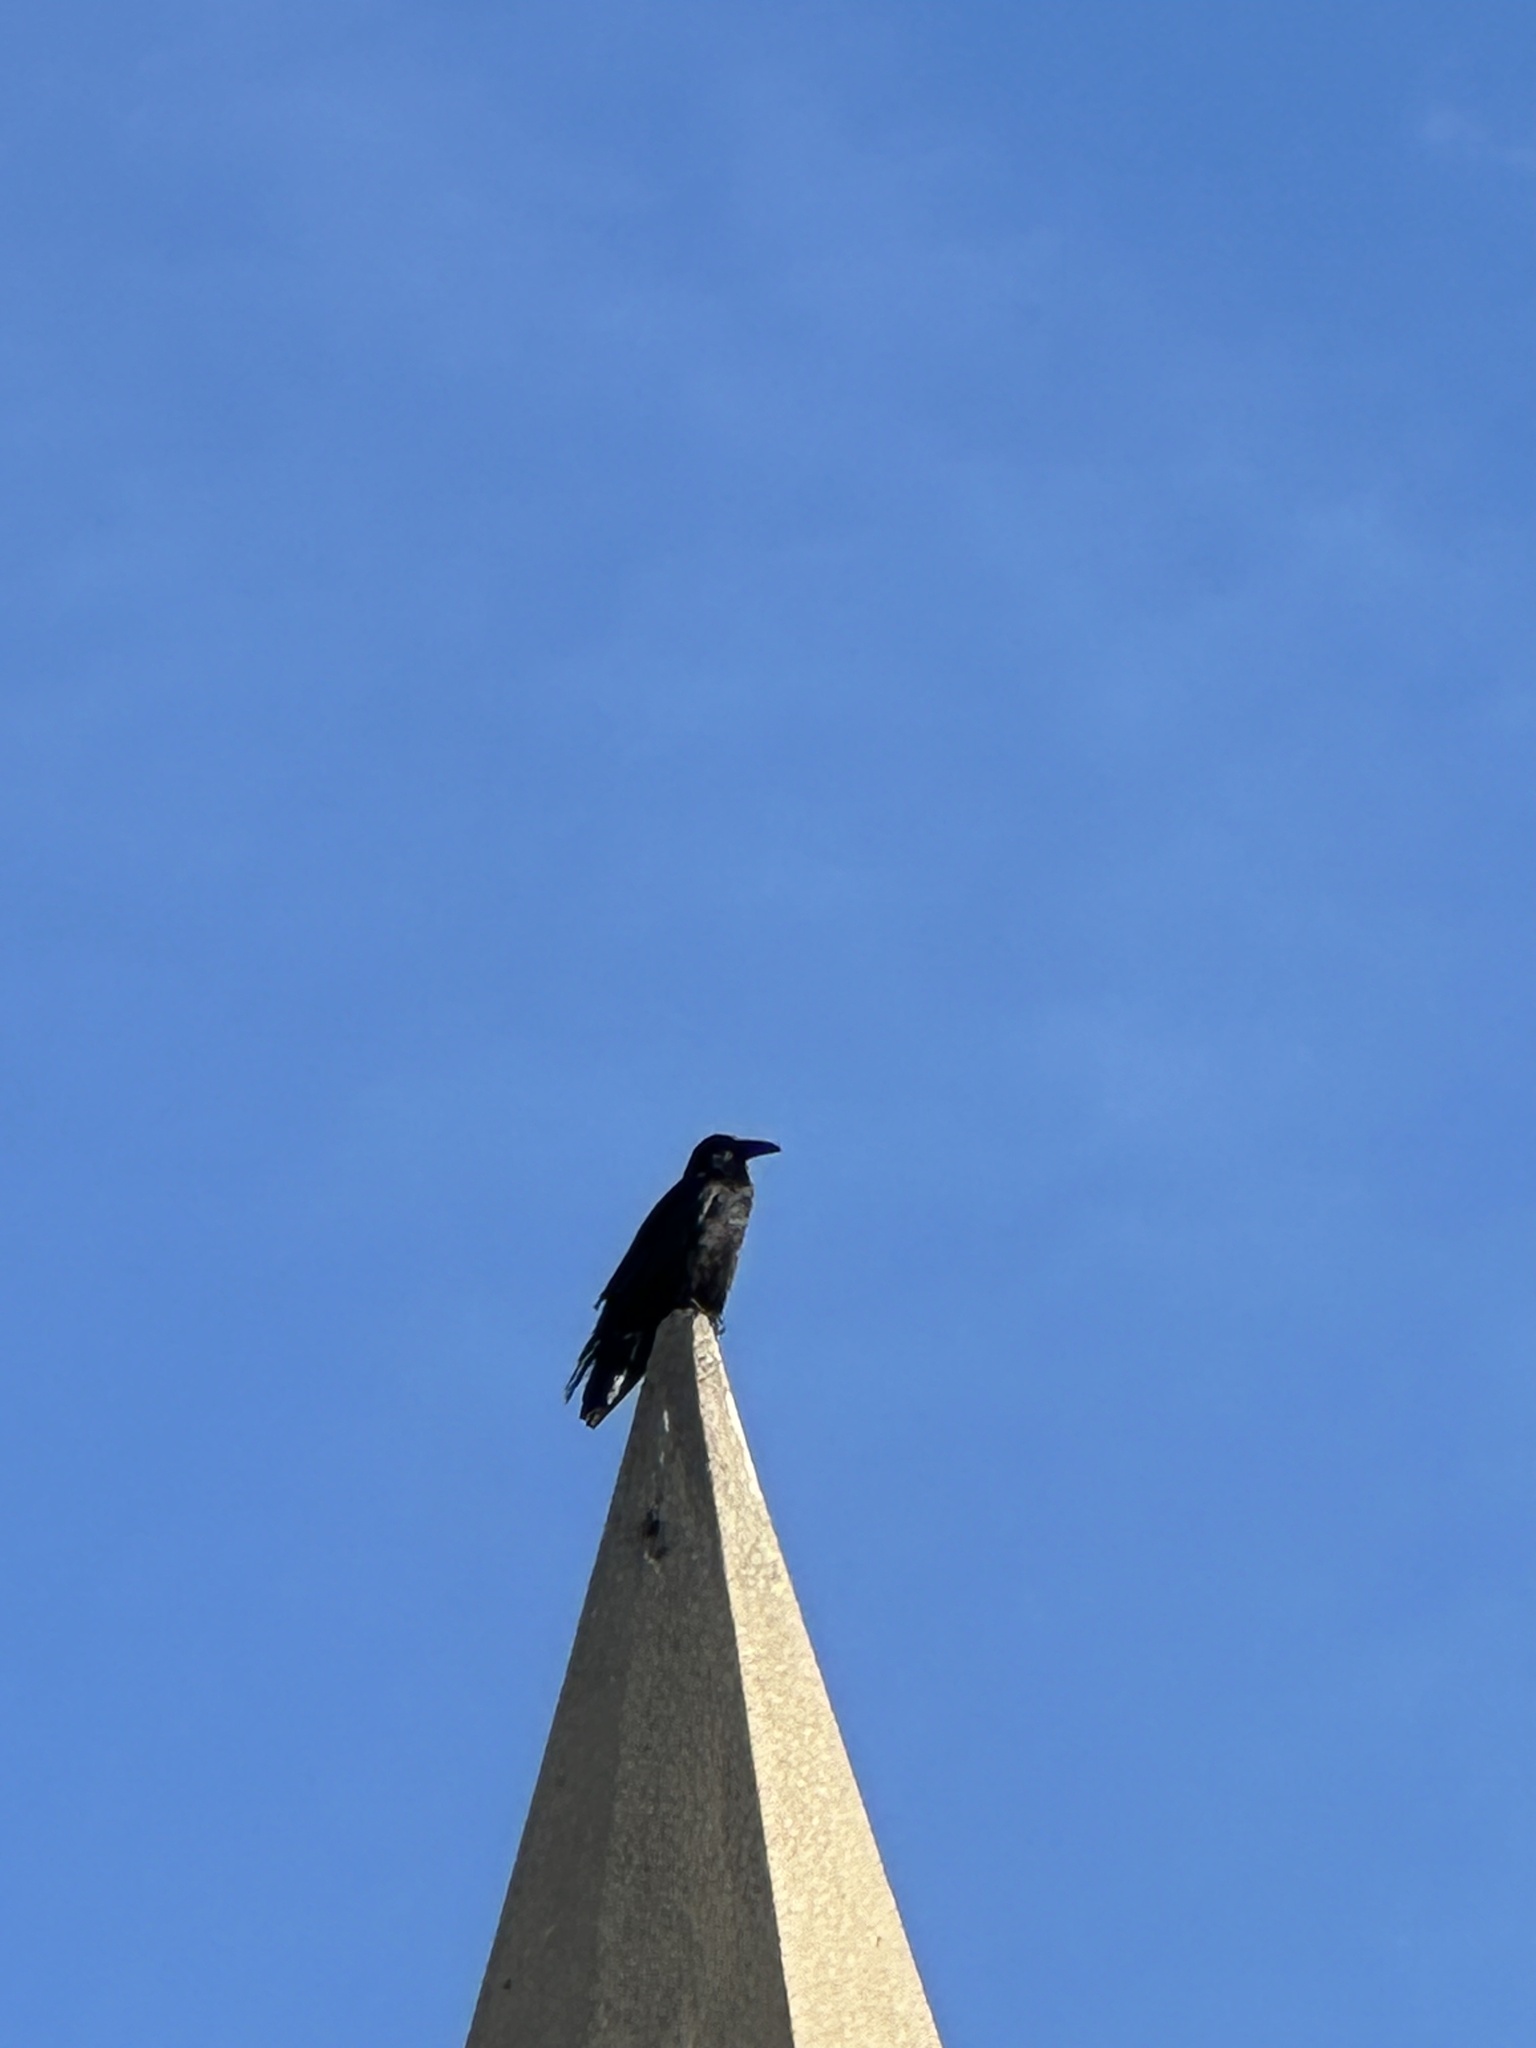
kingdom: Animalia
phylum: Chordata
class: Aves
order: Passeriformes
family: Corvidae
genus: Corvus
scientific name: Corvus corax
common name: Common raven
